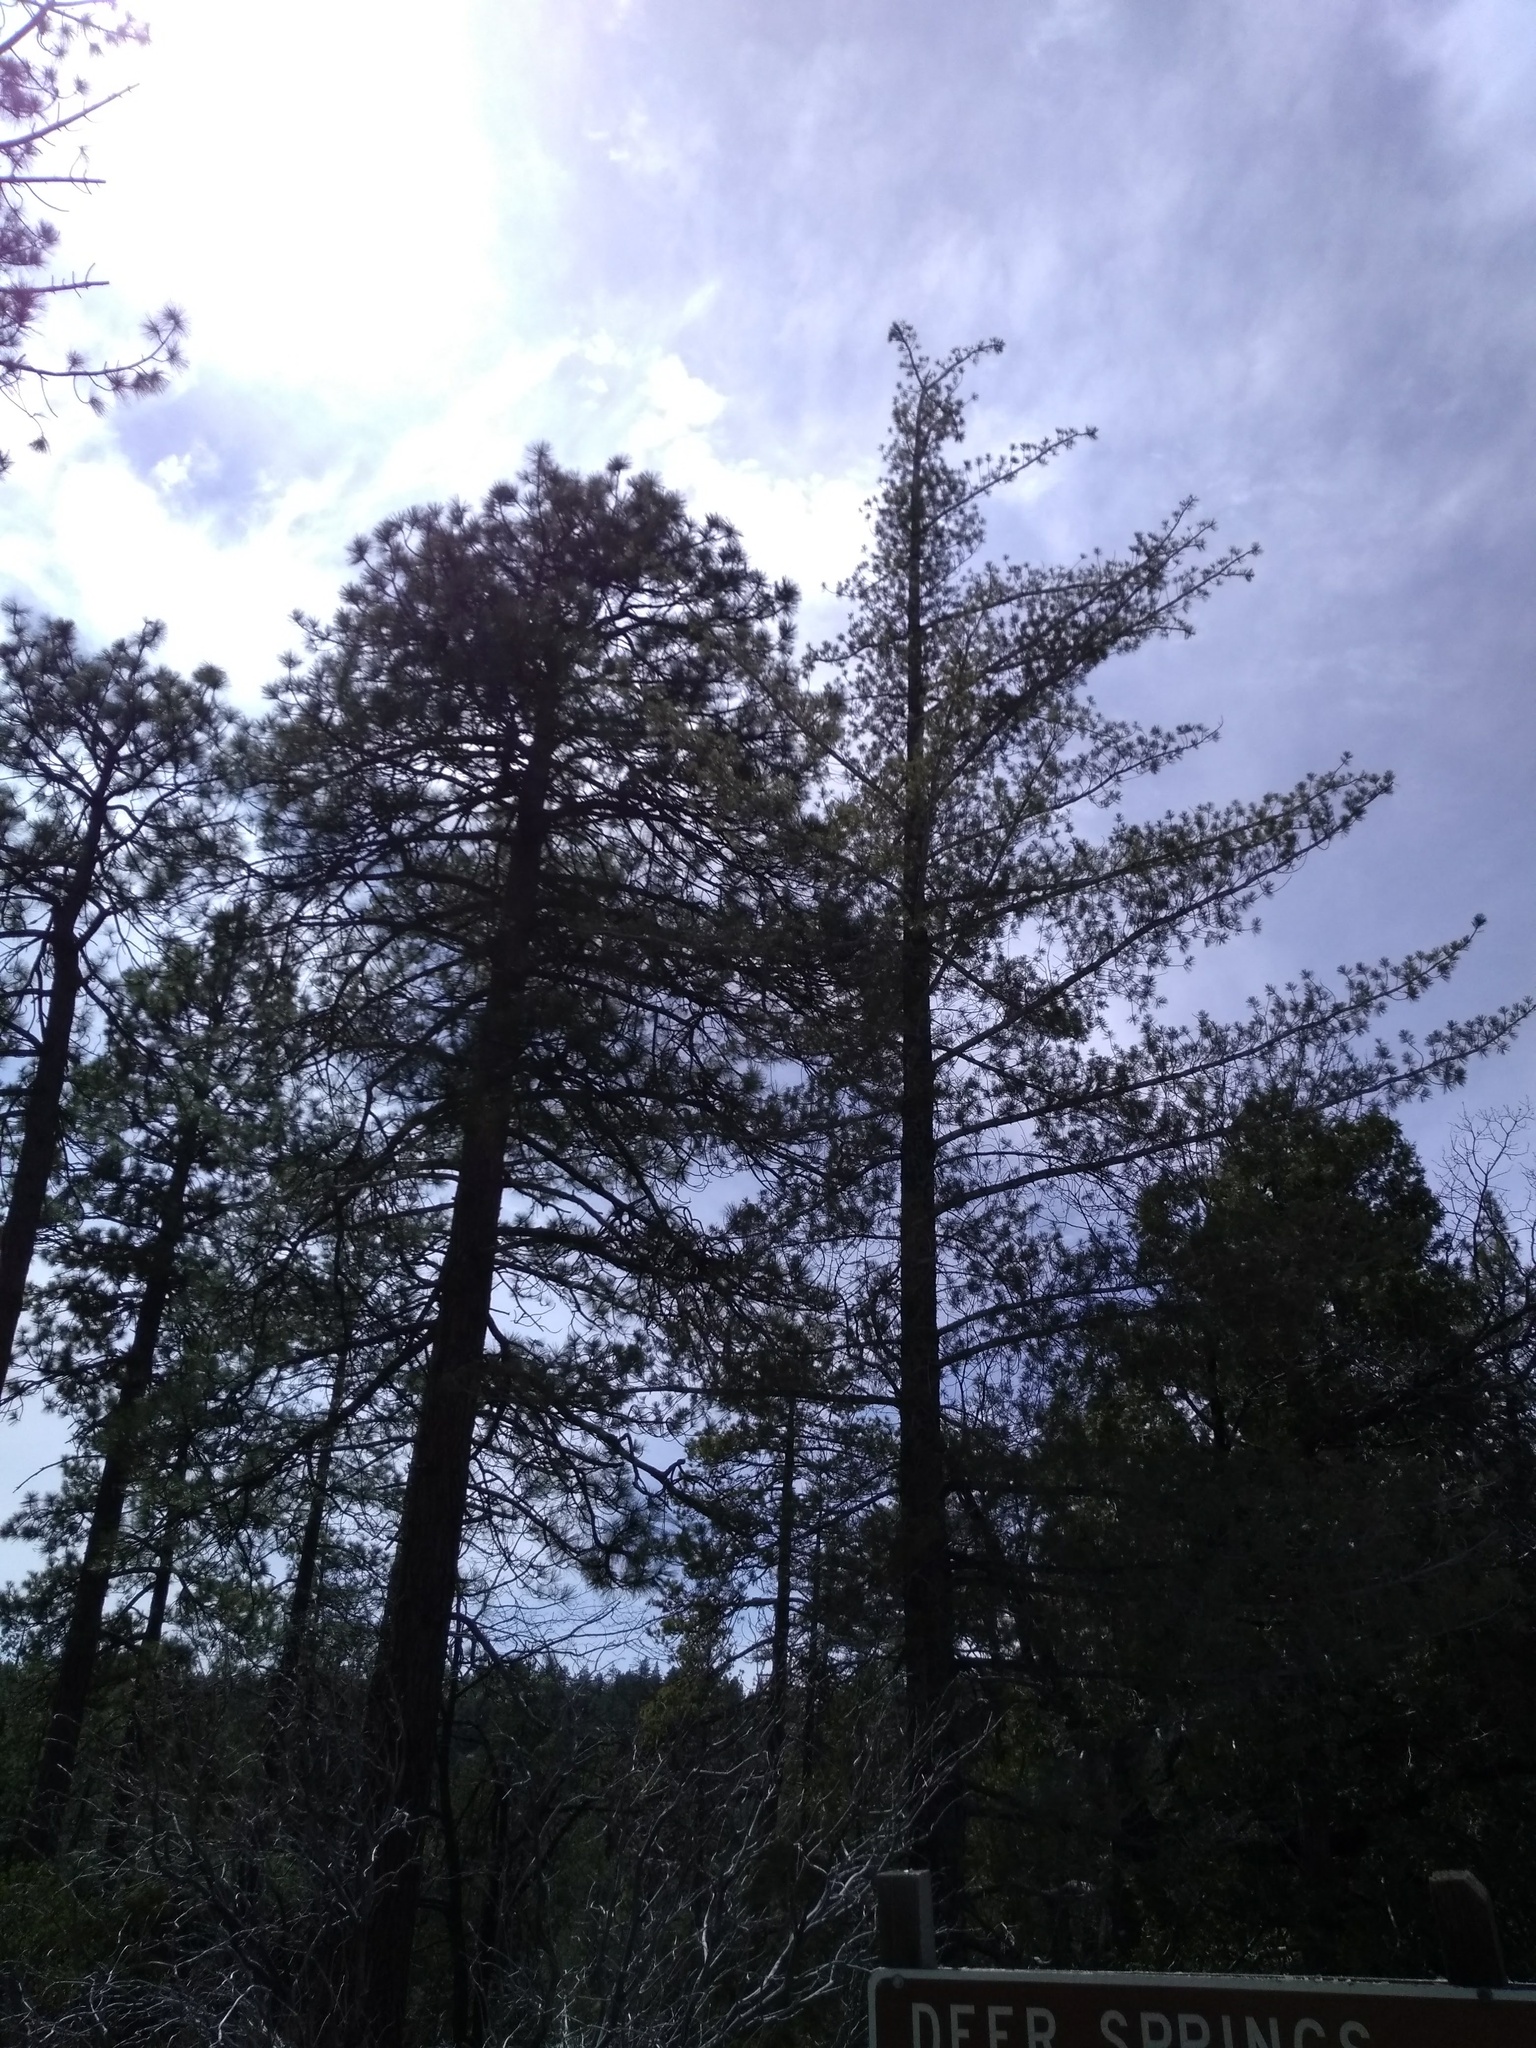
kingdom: Plantae
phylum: Tracheophyta
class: Pinopsida
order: Pinales
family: Pinaceae
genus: Pinus
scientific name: Pinus lambertiana
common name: Sugar pine
